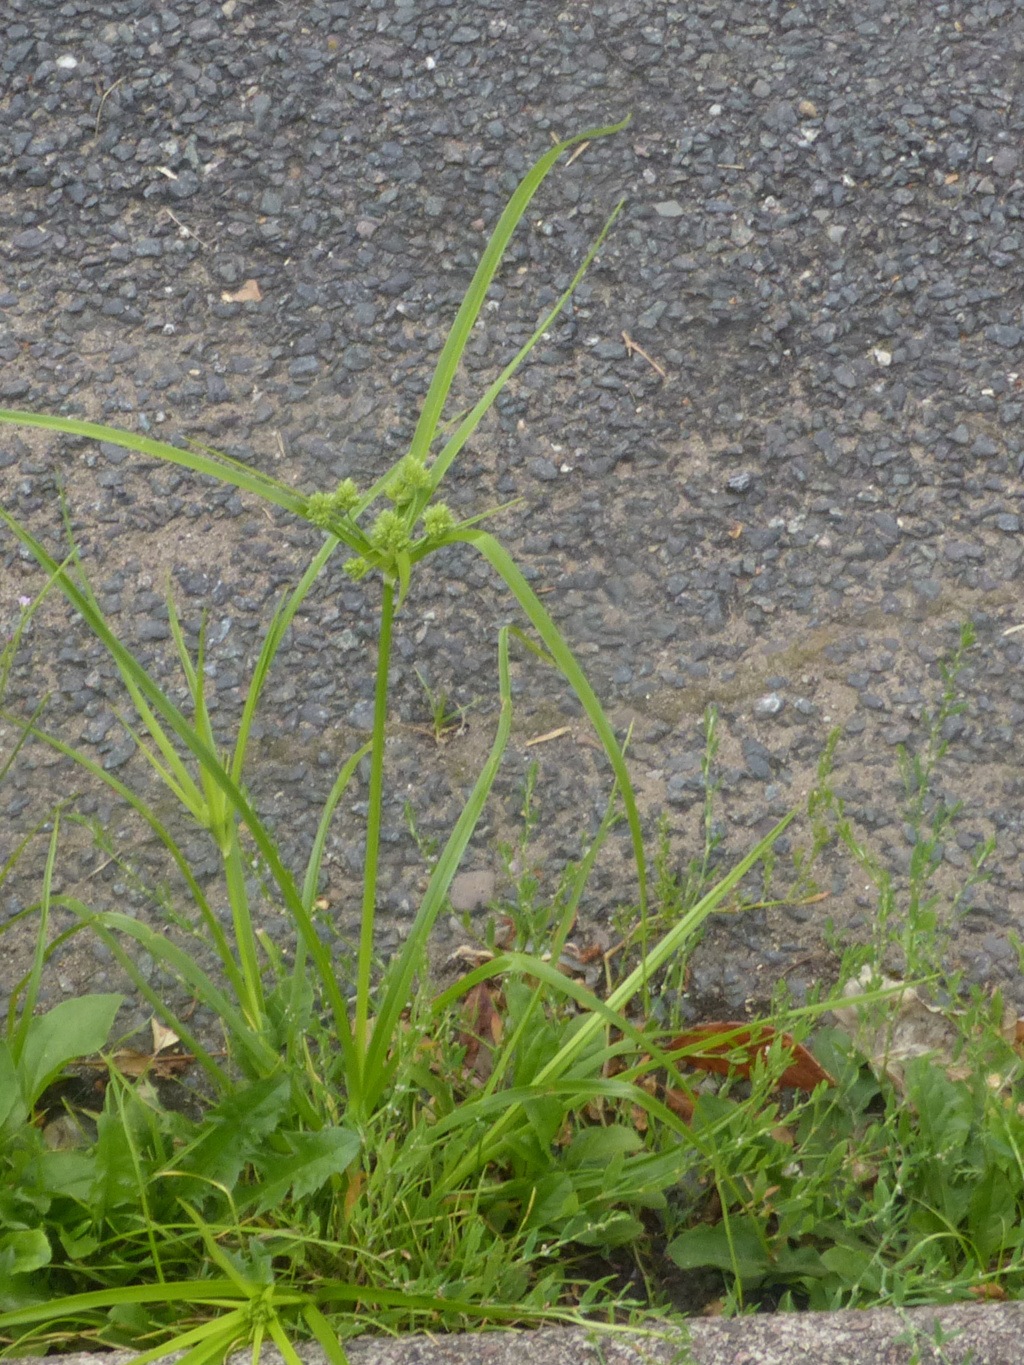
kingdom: Plantae
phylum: Tracheophyta
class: Liliopsida
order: Poales
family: Cyperaceae
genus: Cyperus
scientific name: Cyperus eragrostis
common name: Tall flatsedge
